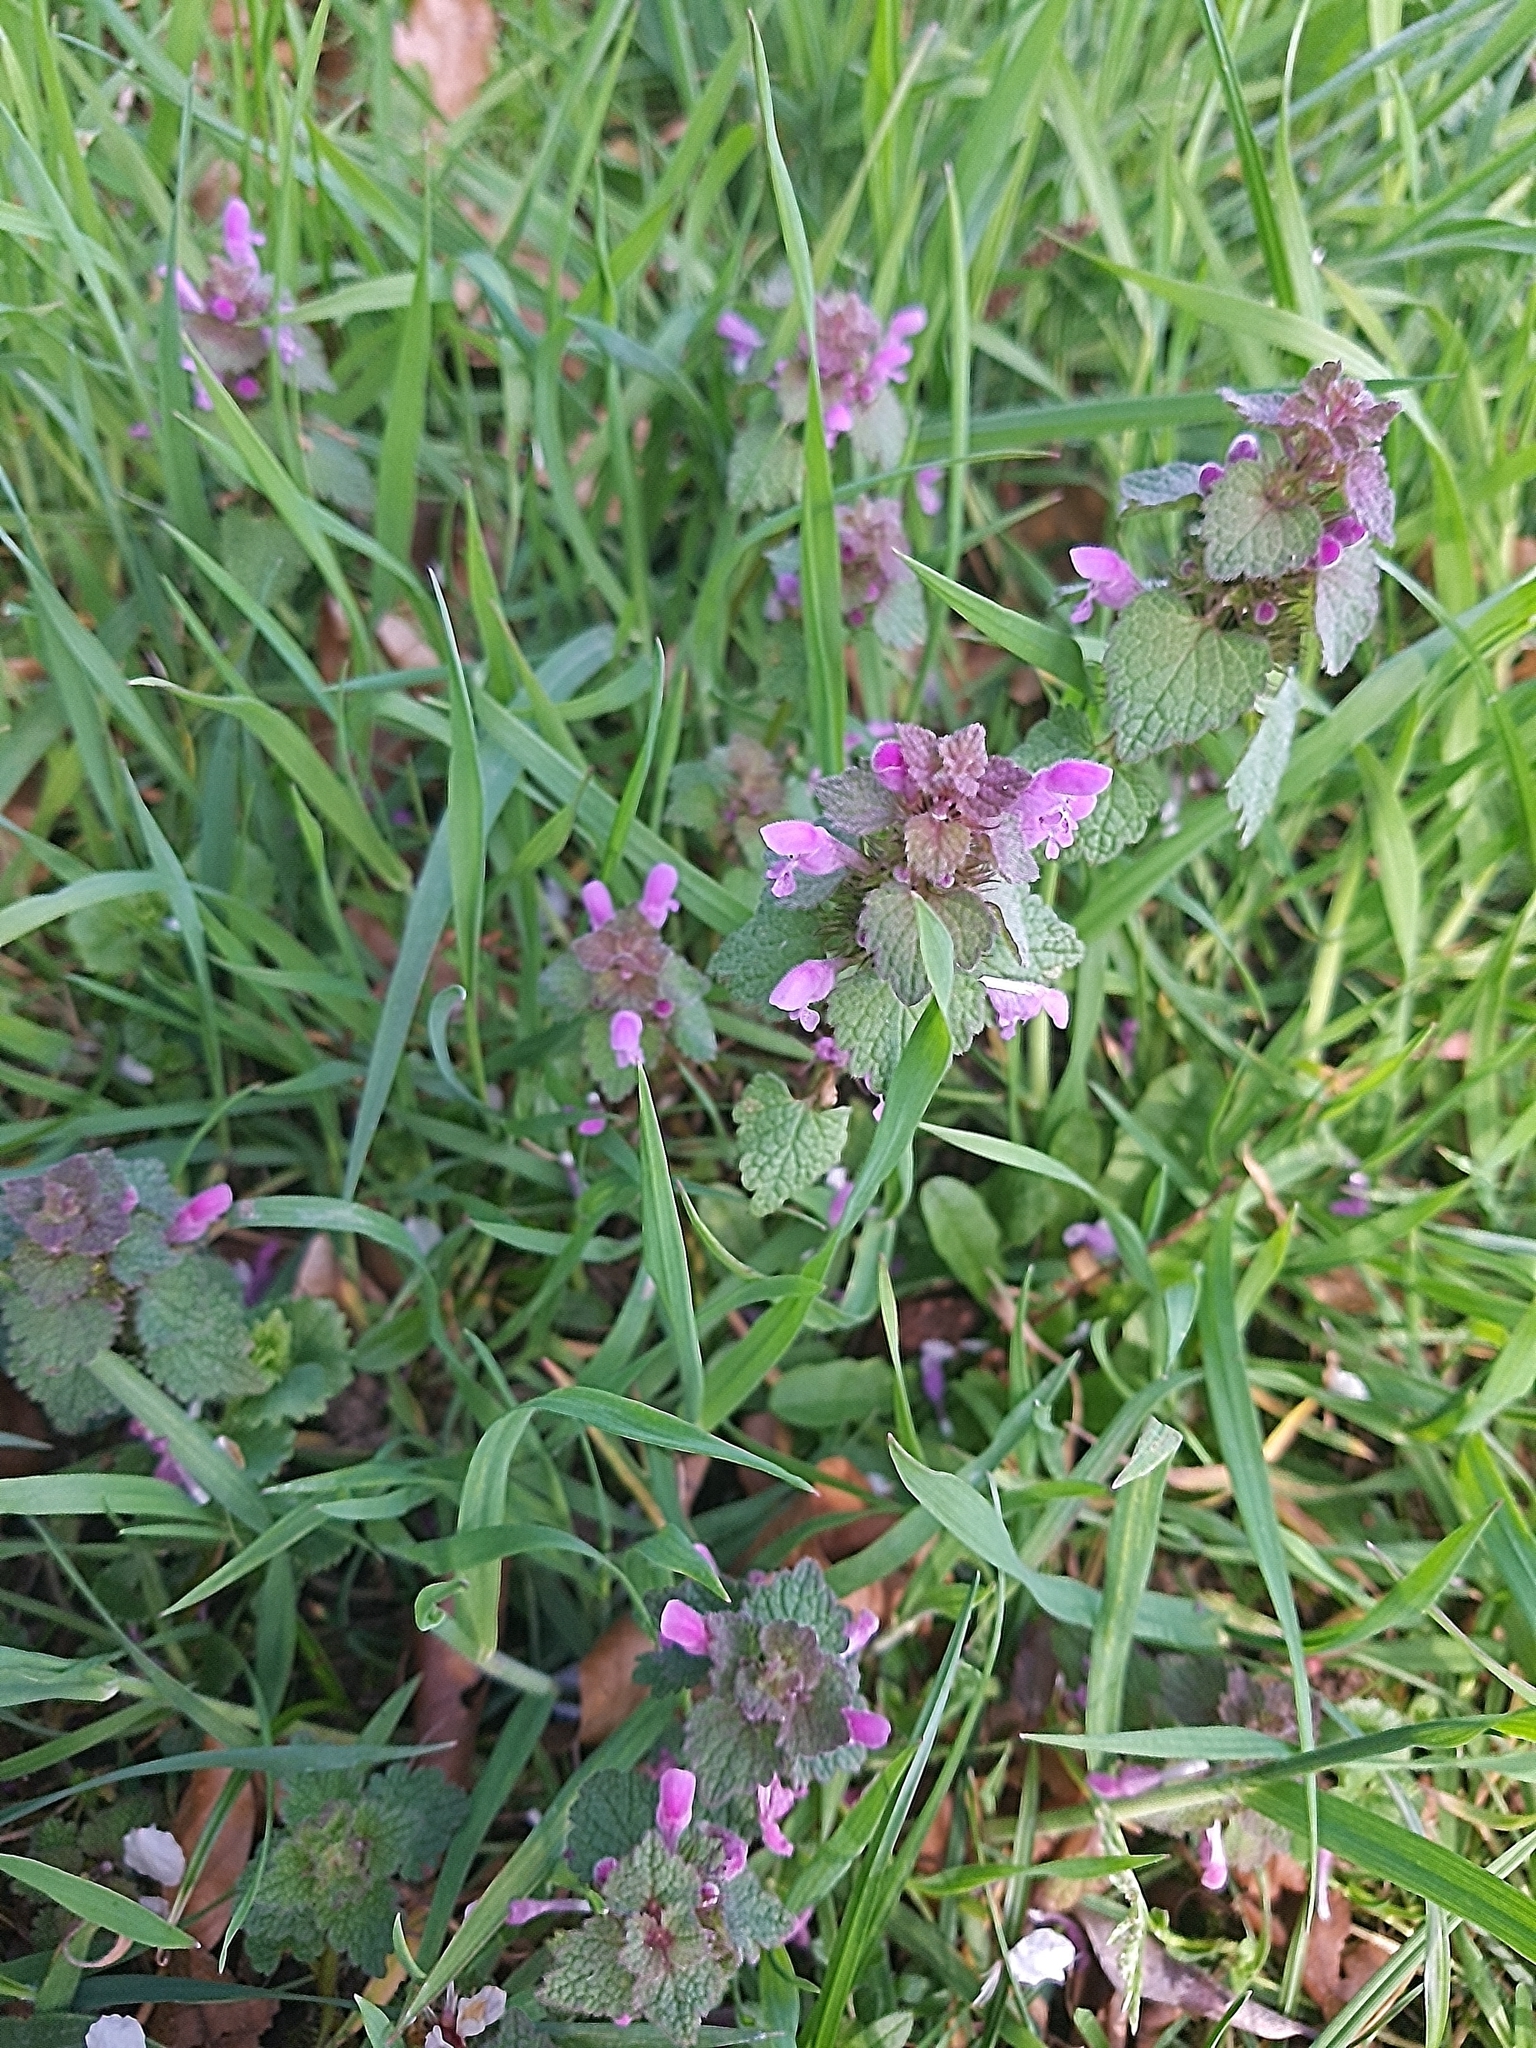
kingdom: Plantae
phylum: Tracheophyta
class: Magnoliopsida
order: Lamiales
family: Lamiaceae
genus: Lamium
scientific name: Lamium purpureum
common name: Red dead-nettle
